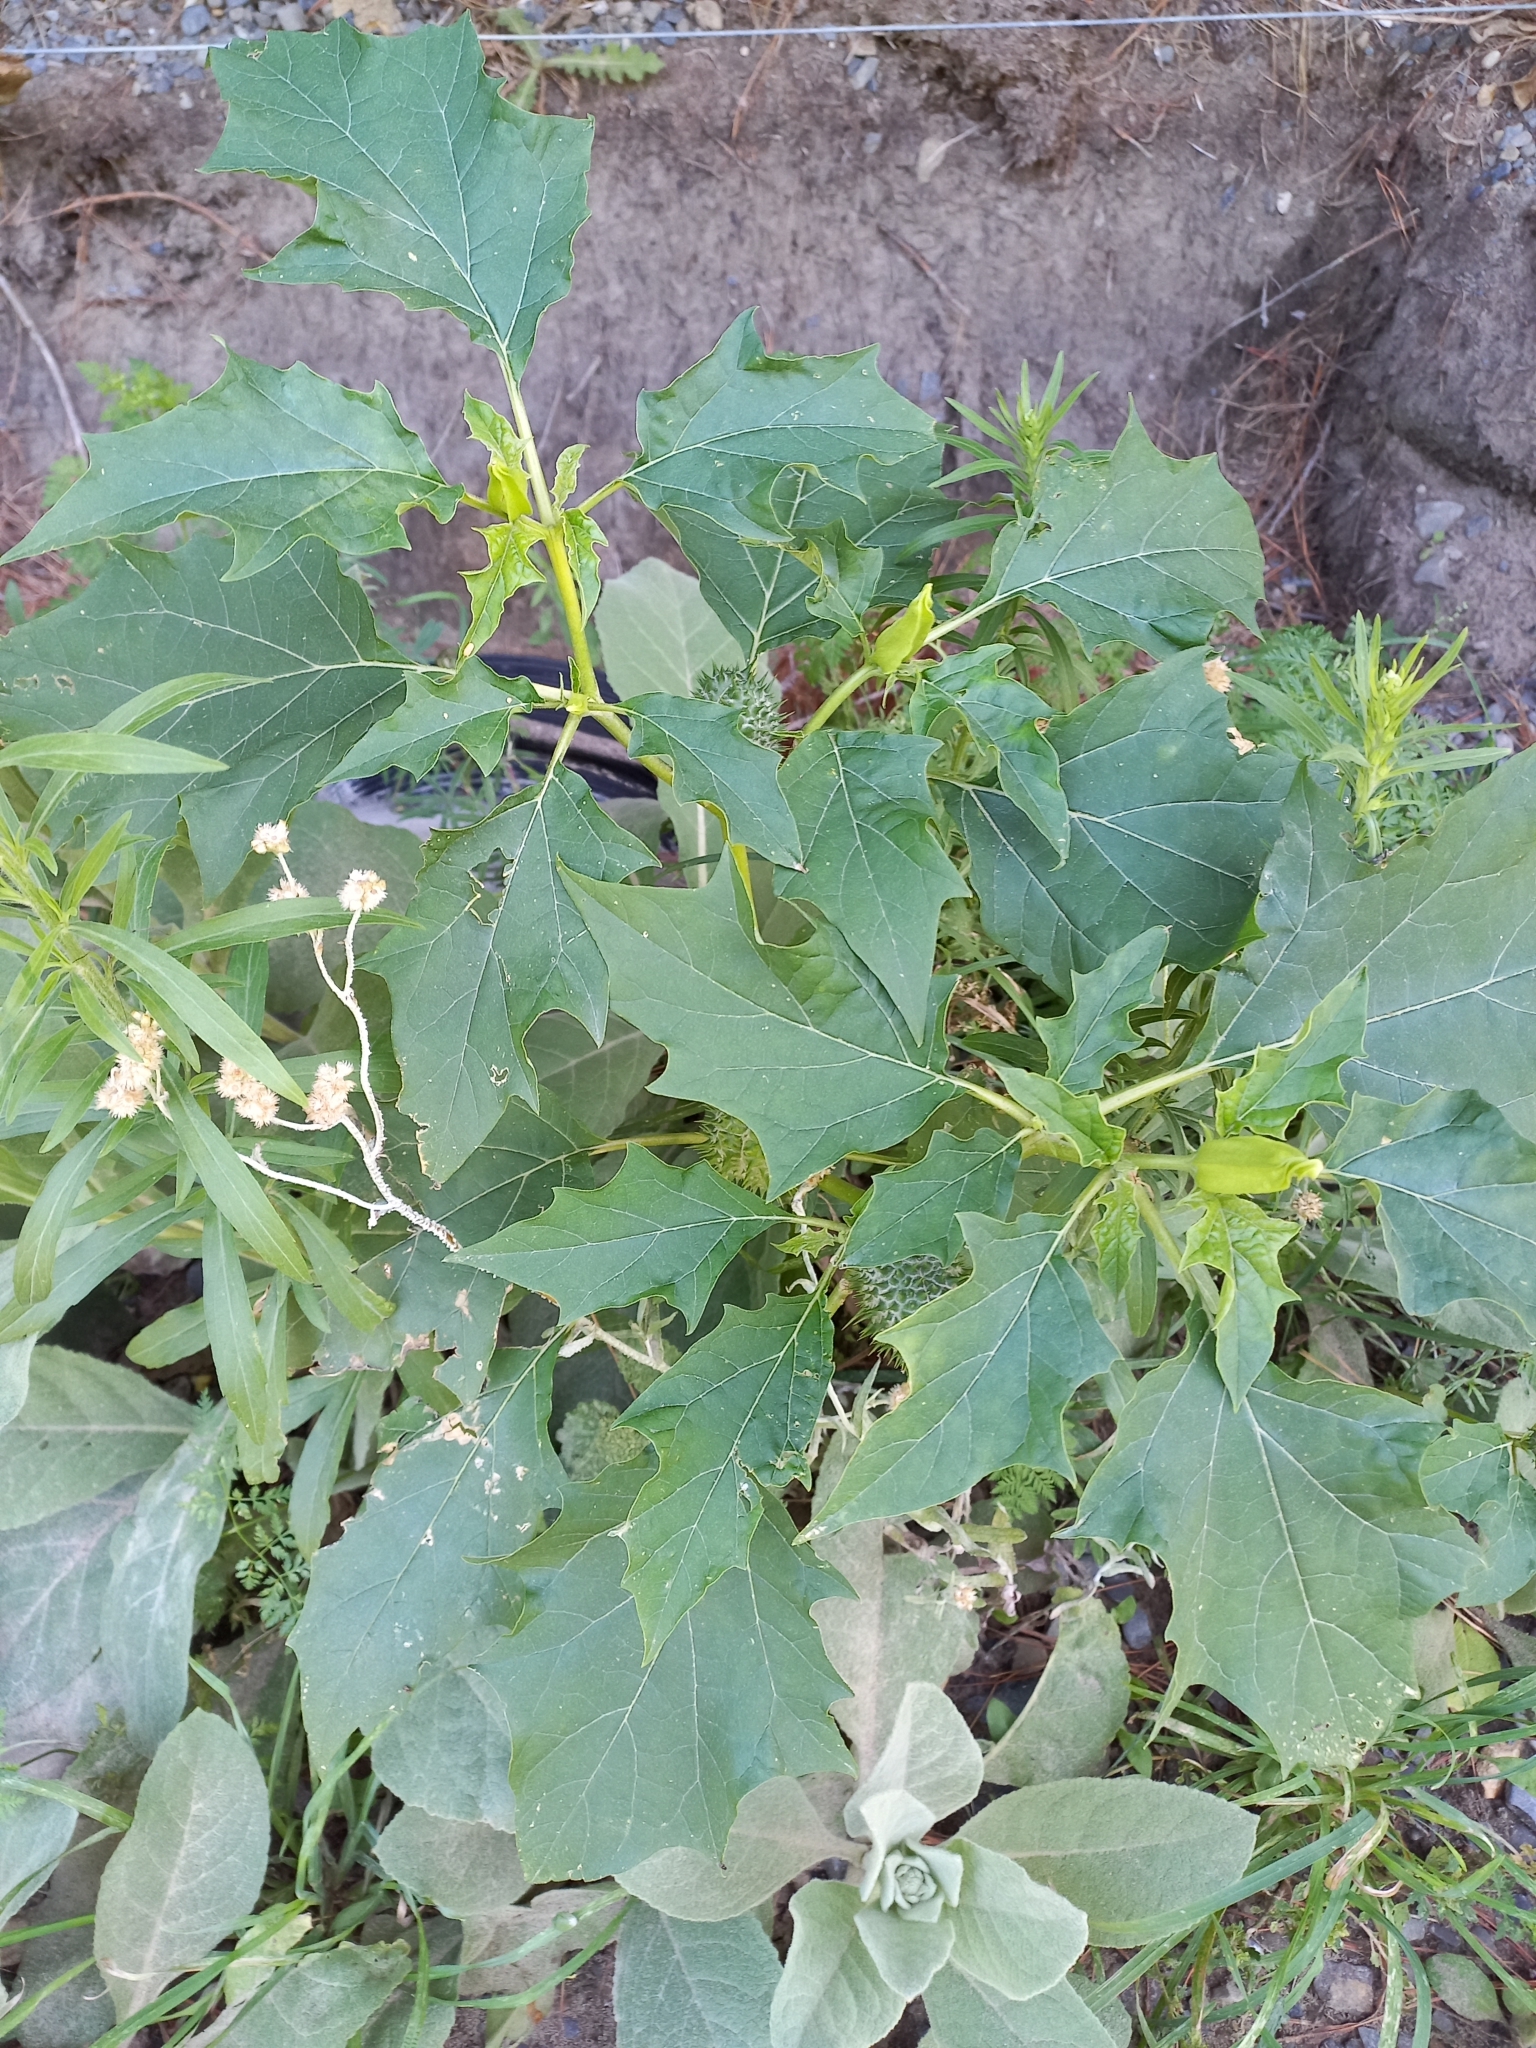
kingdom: Plantae
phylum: Tracheophyta
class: Magnoliopsida
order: Solanales
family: Solanaceae
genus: Datura
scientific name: Datura stramonium
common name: Thorn-apple
